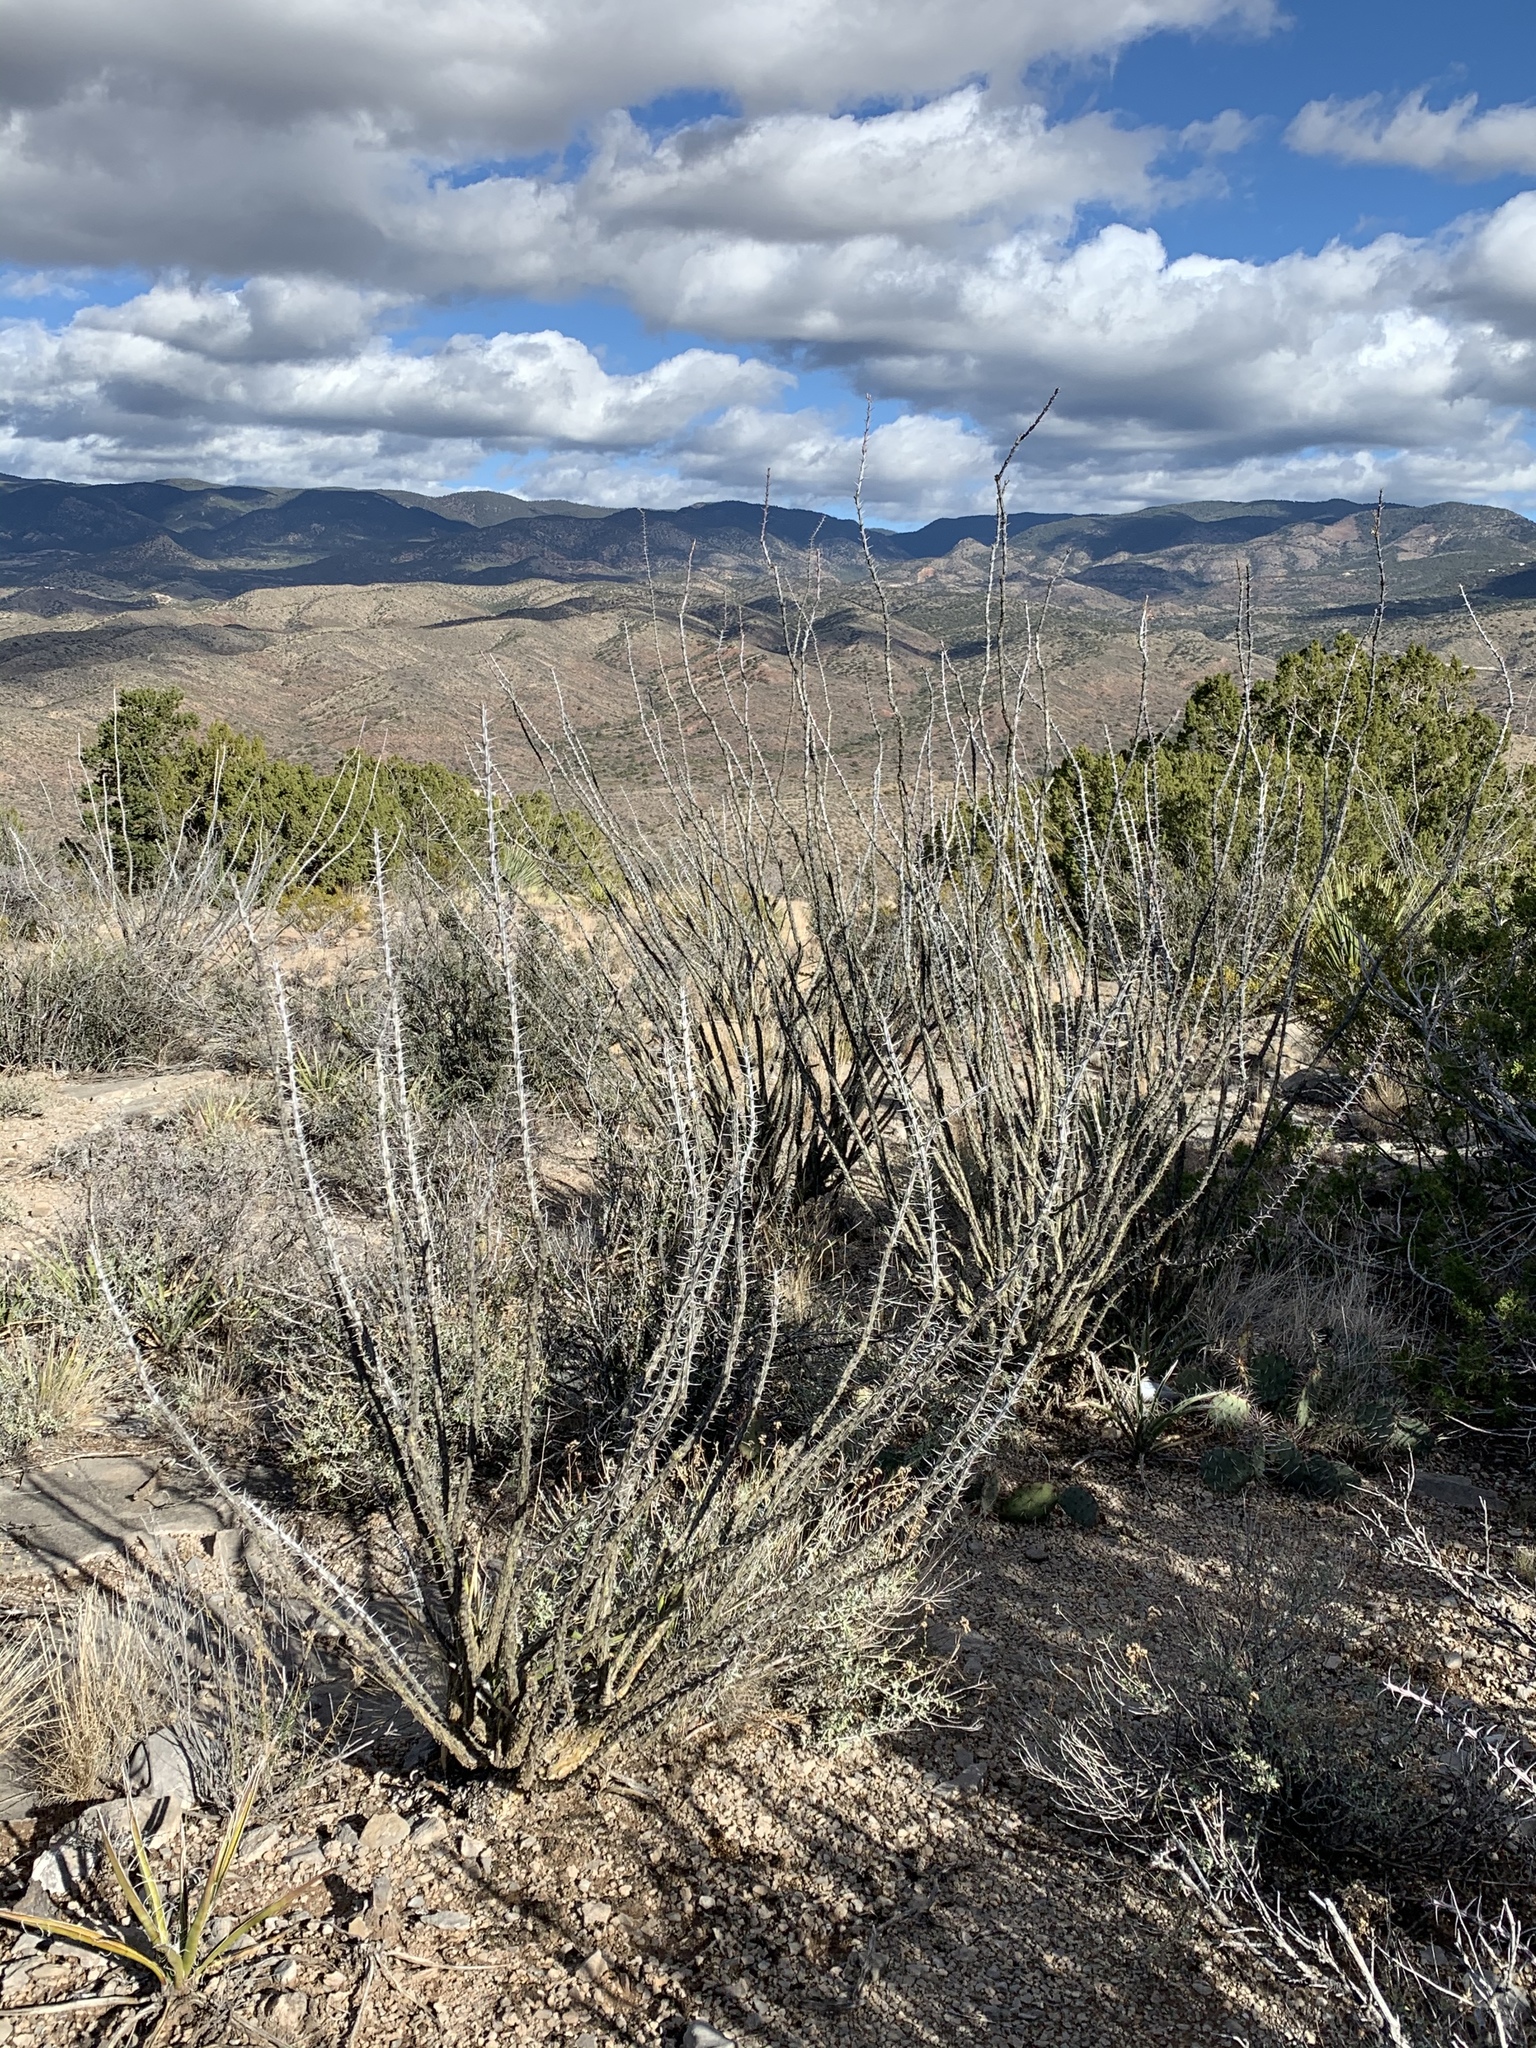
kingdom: Plantae
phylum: Tracheophyta
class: Magnoliopsida
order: Ericales
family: Fouquieriaceae
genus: Fouquieria
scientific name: Fouquieria splendens
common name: Vine-cactus
